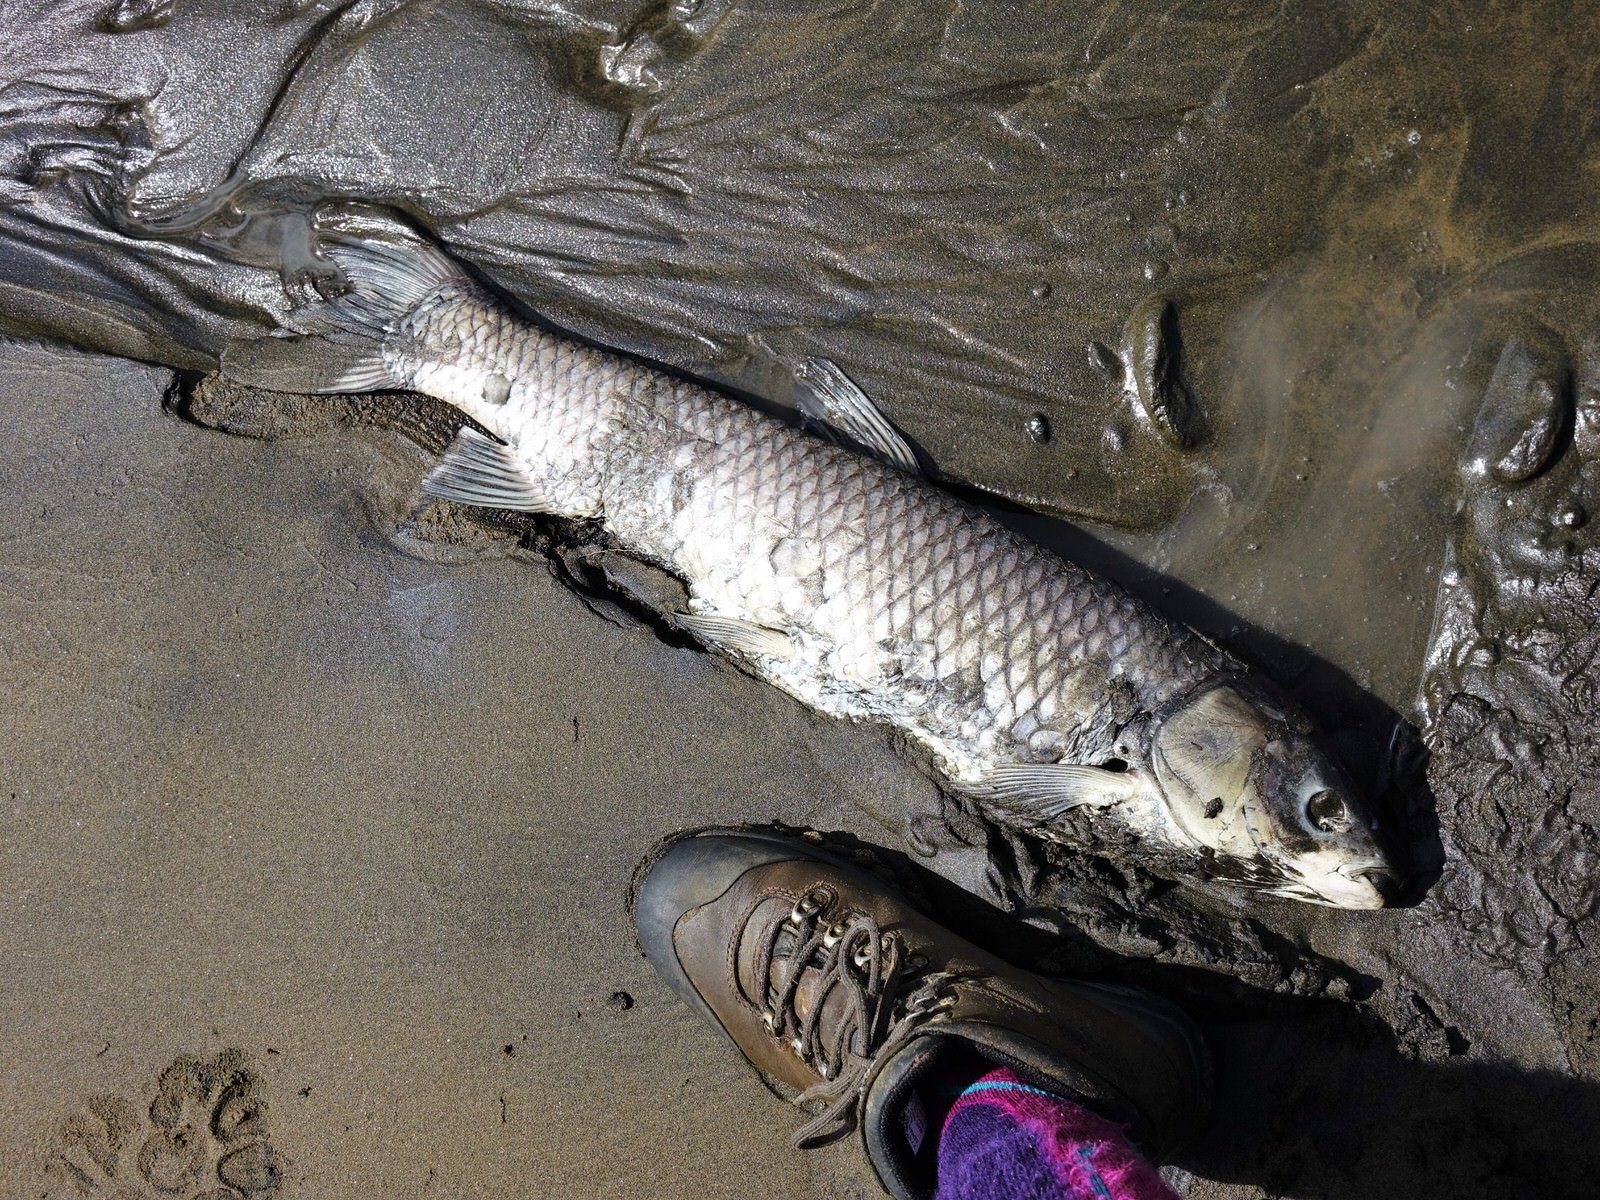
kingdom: Animalia
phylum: Chordata
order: Cypriniformes
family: Cyprinidae
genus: Ctenopharyngodon
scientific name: Ctenopharyngodon idella
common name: Grass carp
